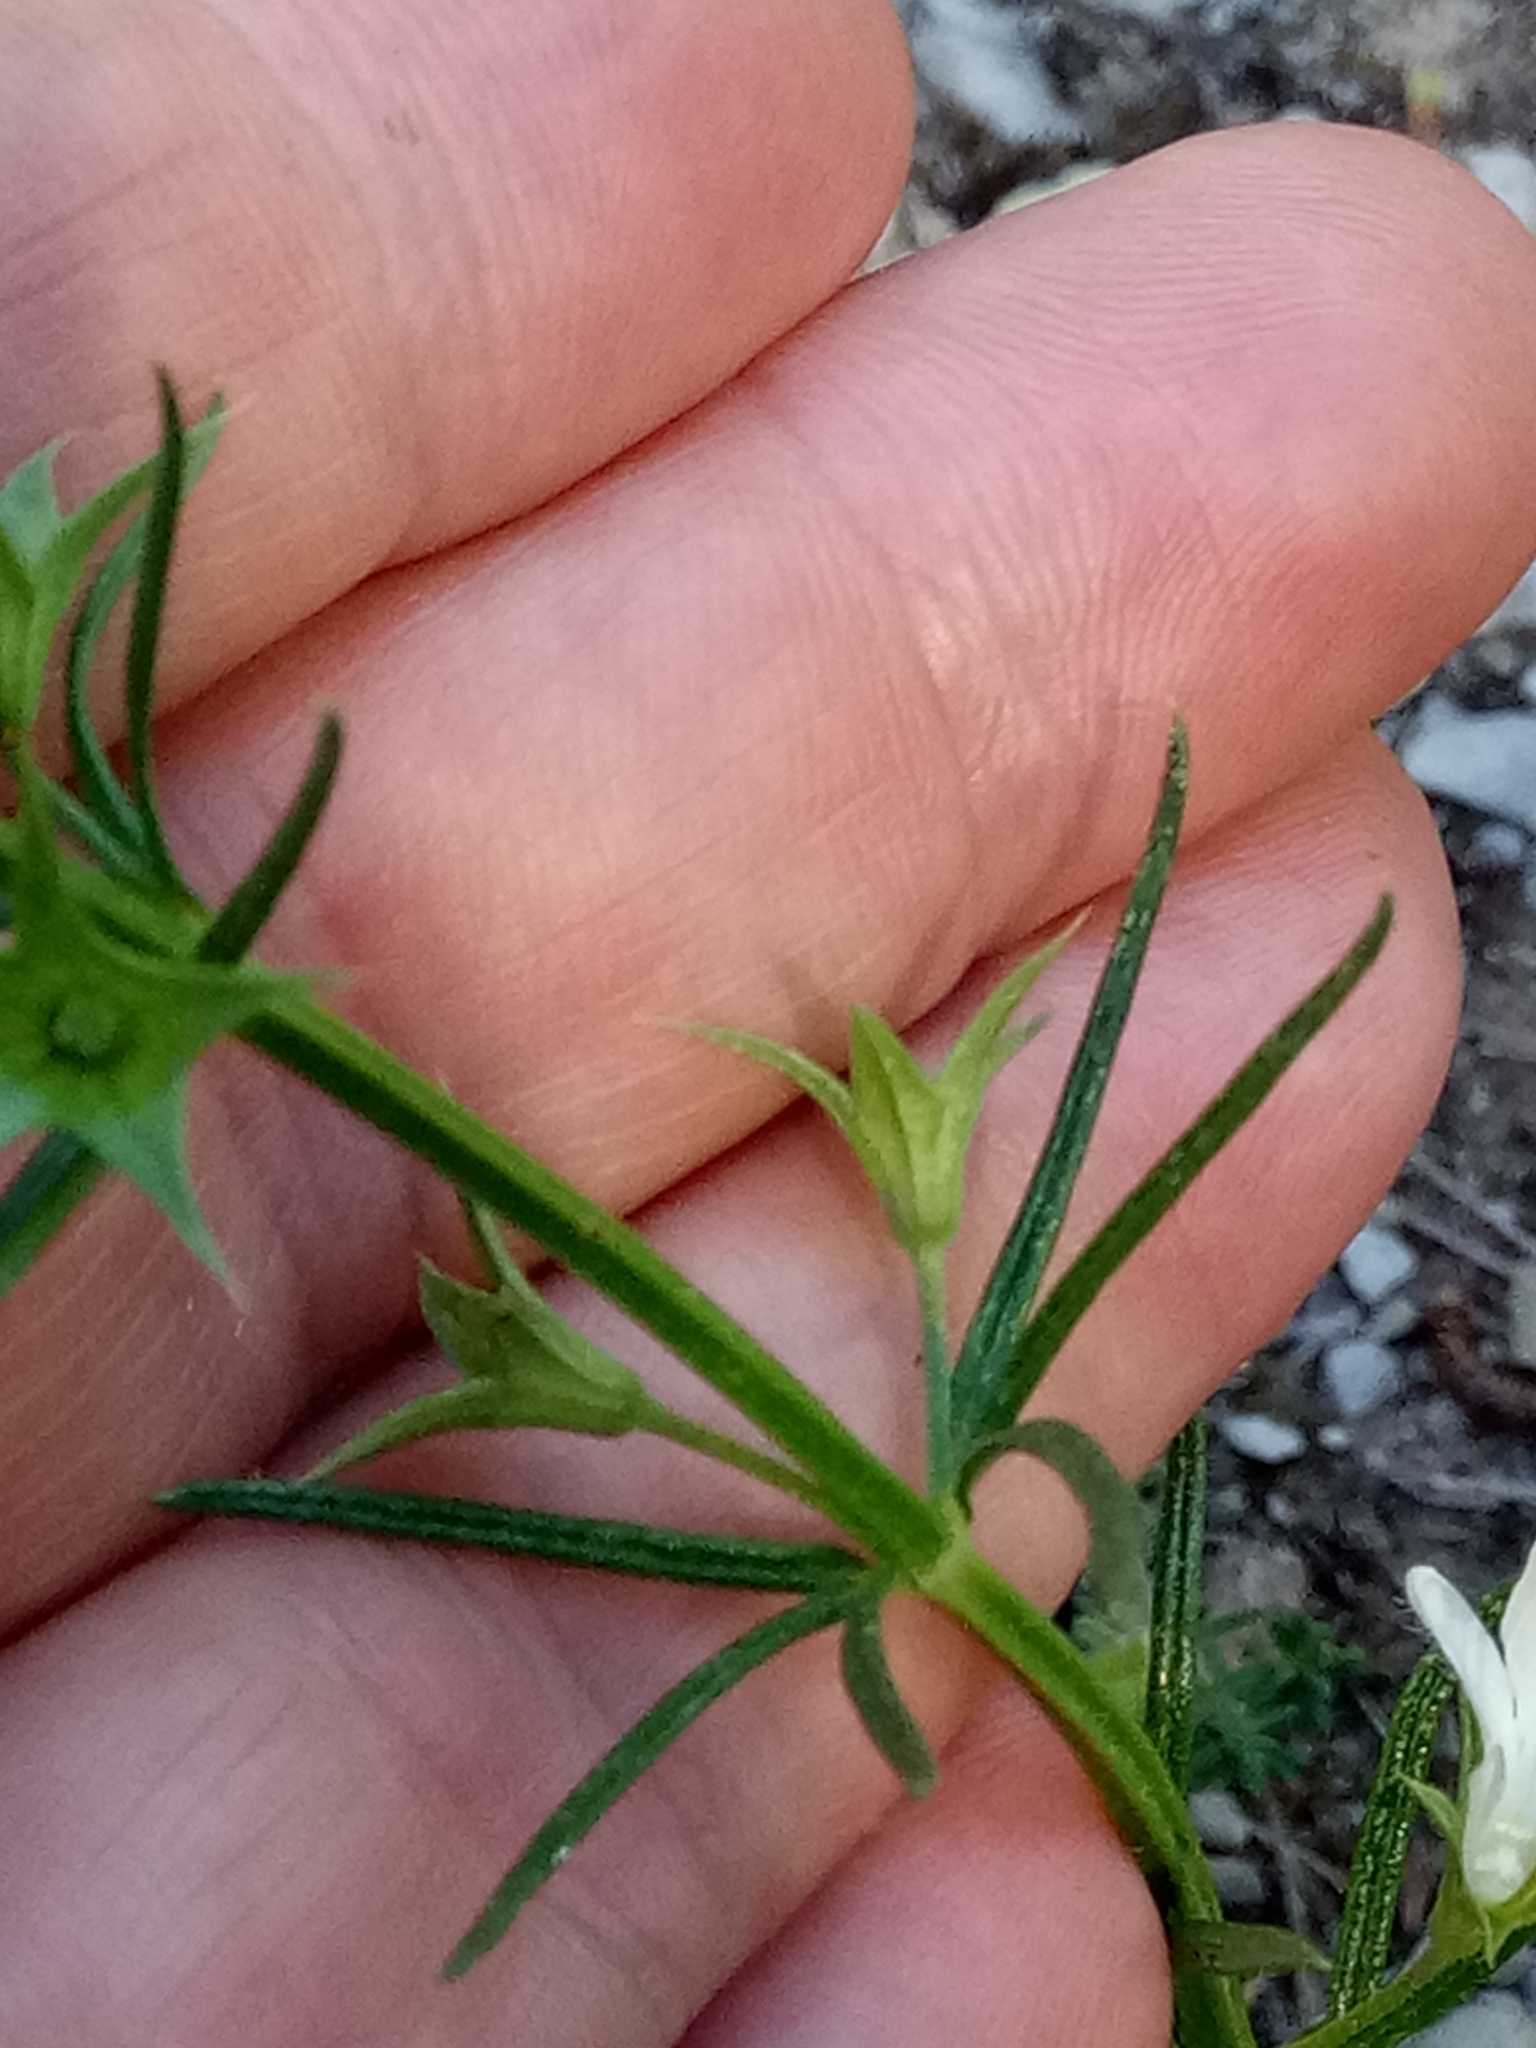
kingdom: Plantae
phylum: Tracheophyta
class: Magnoliopsida
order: Lamiales
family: Lamiaceae
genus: Teucrium
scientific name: Teucrium pseudochamaepitys
